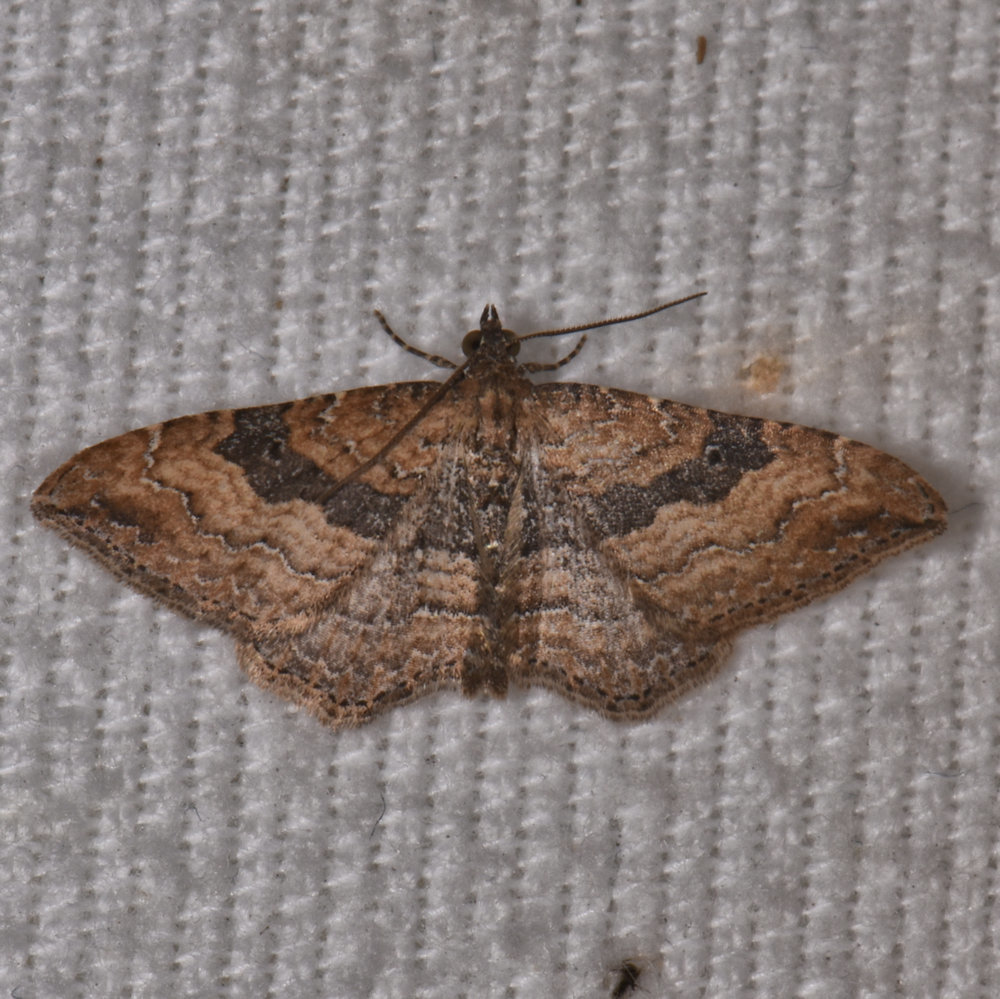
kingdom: Animalia
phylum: Arthropoda
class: Insecta
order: Lepidoptera
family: Geometridae
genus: Orthonama
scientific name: Orthonama obstipata
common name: The gem
